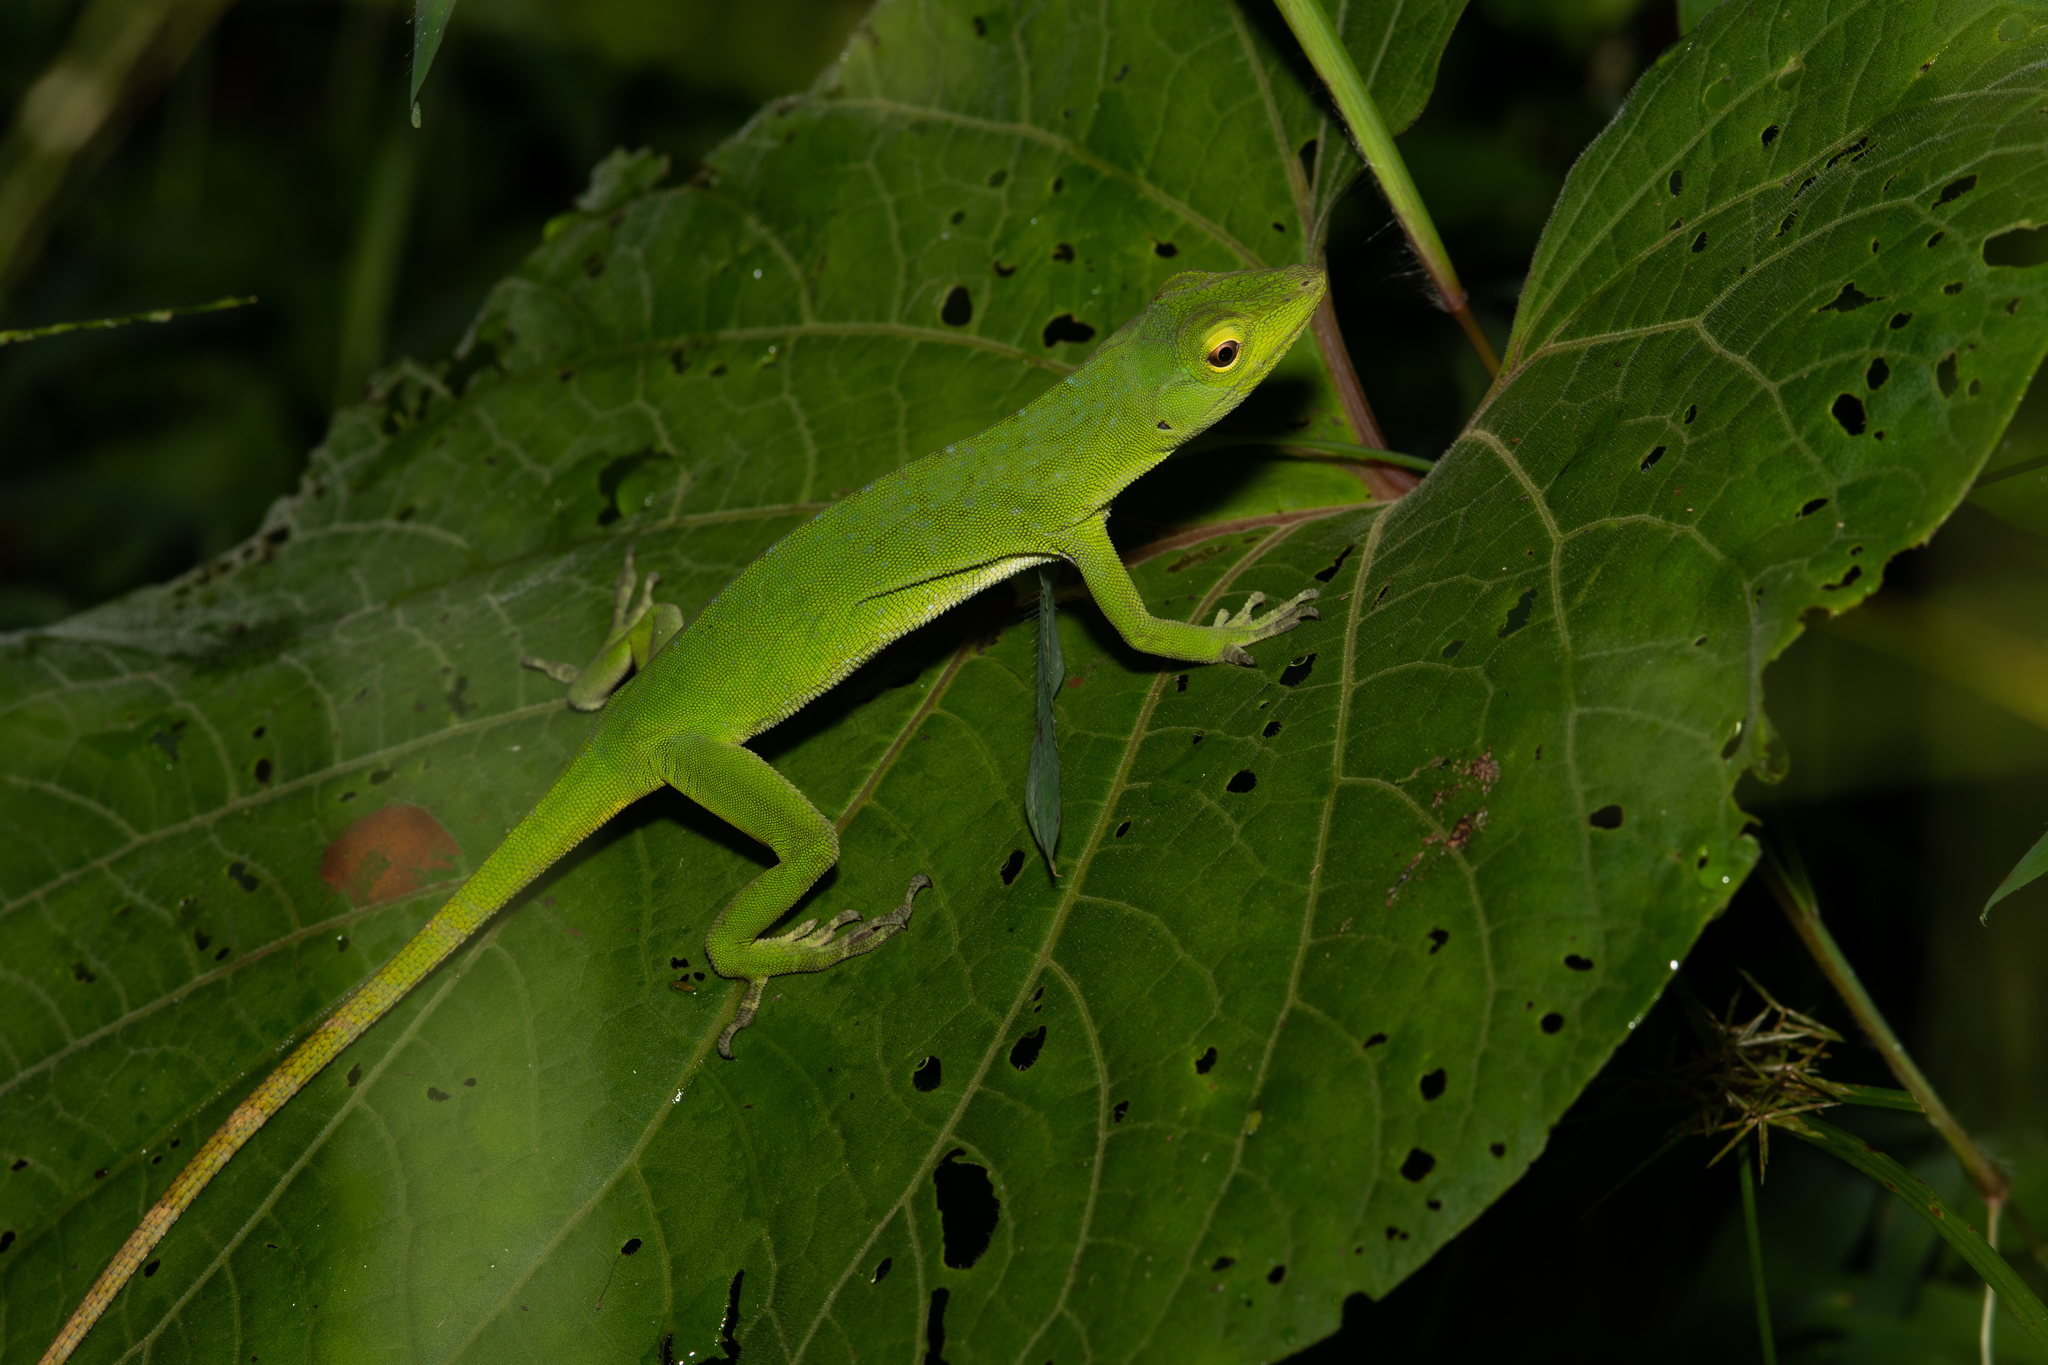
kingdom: Animalia
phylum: Chordata
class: Squamata
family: Dactyloidae
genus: Anolis
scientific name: Anolis biporcatus
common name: Giant green anole
